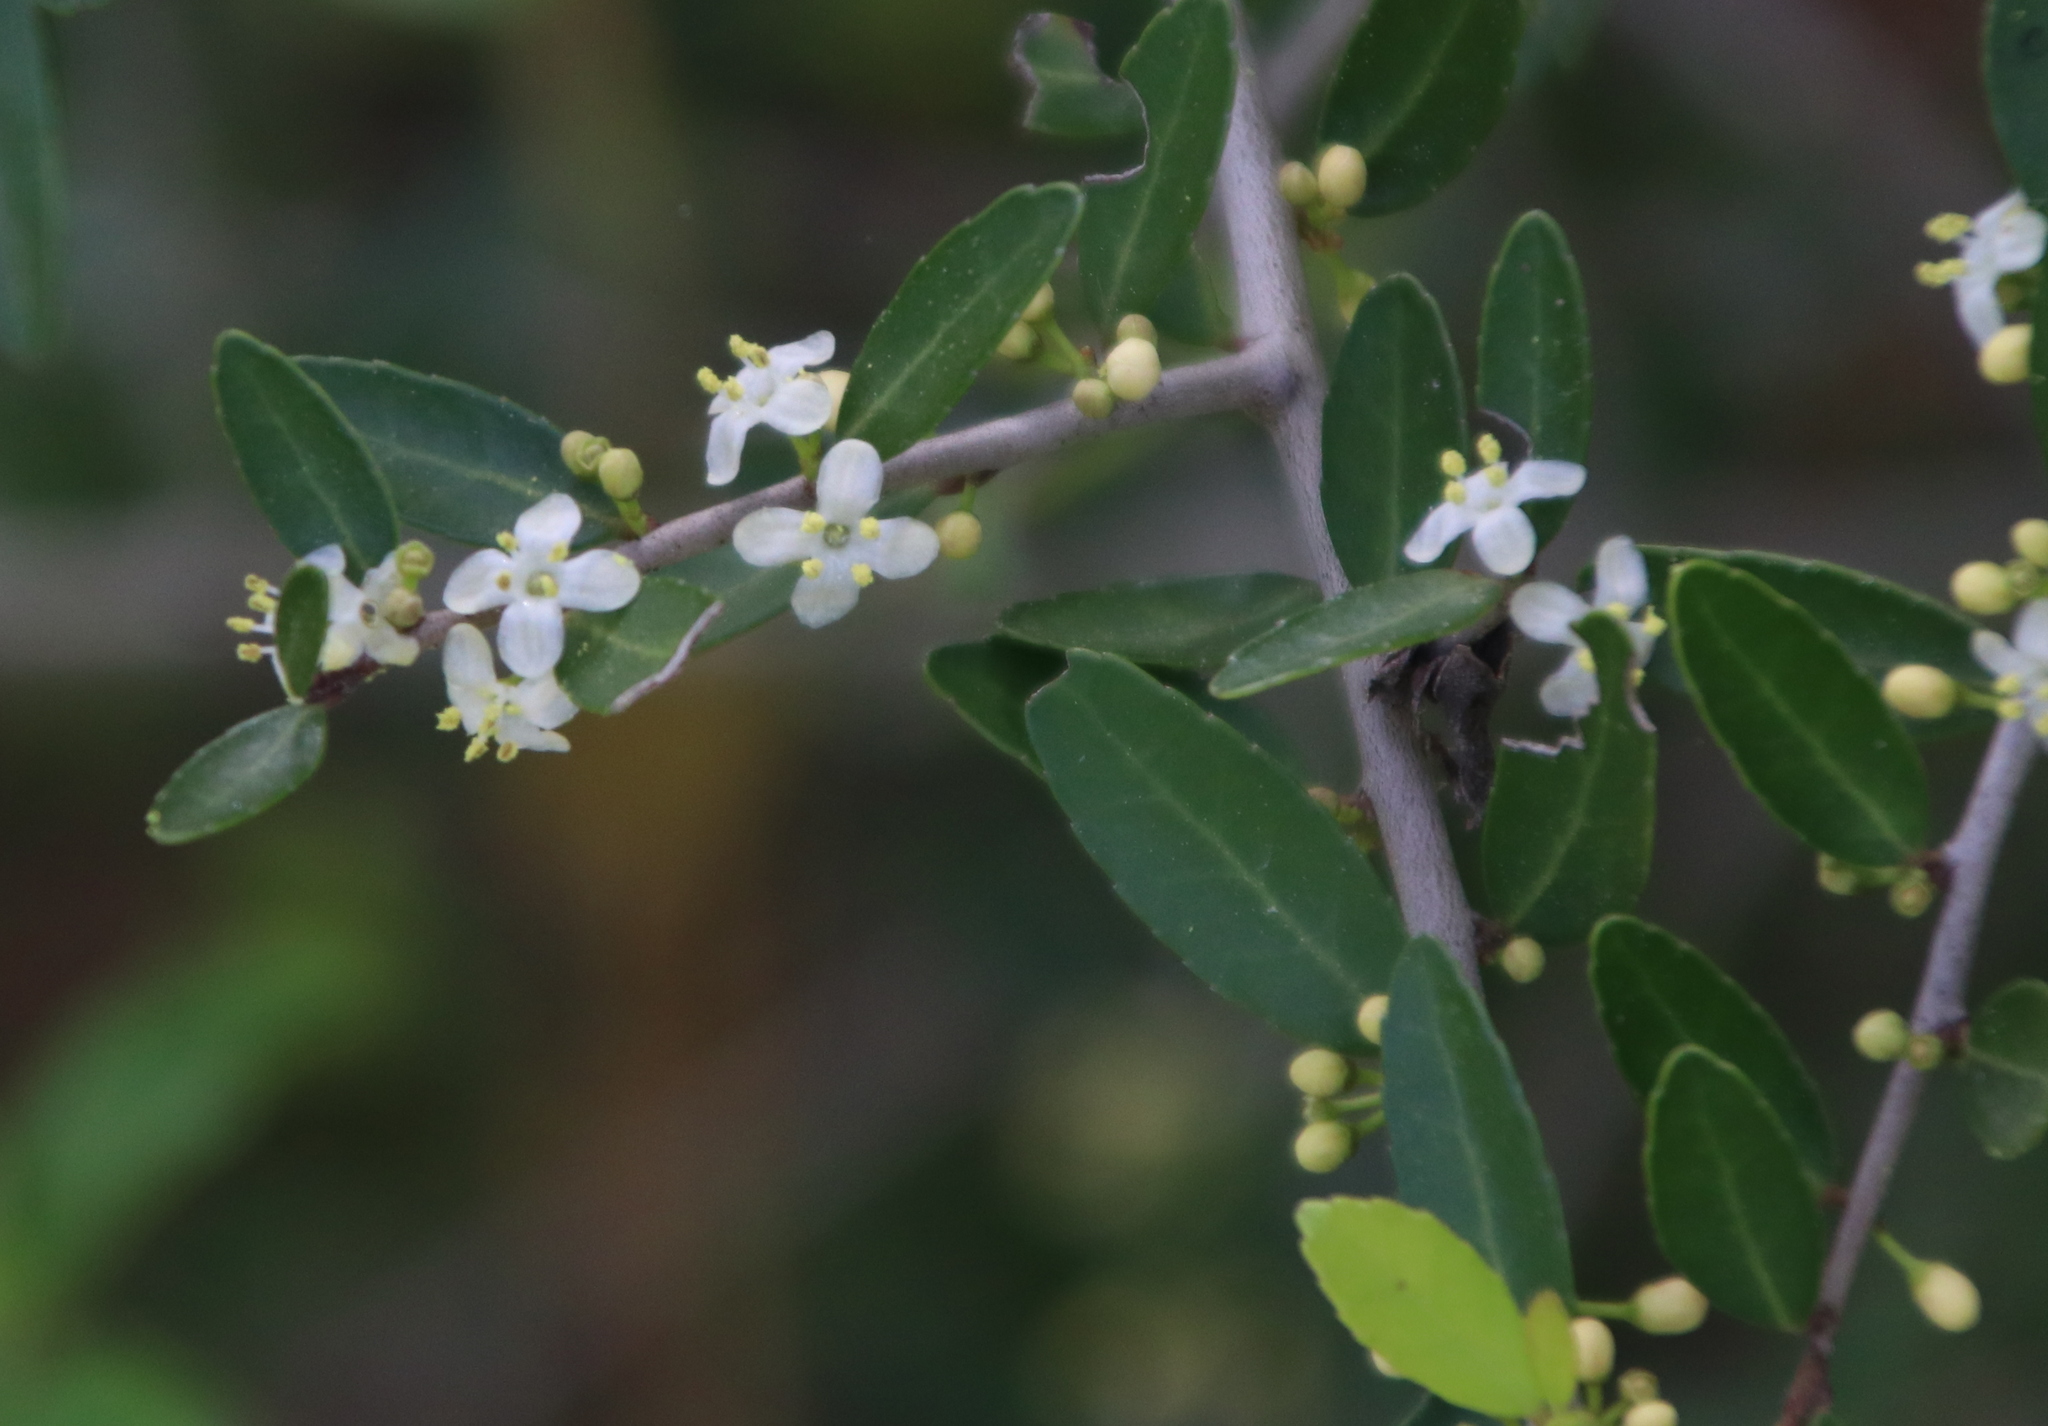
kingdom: Plantae
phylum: Tracheophyta
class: Magnoliopsida
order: Aquifoliales
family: Aquifoliaceae
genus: Ilex
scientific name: Ilex vomitoria
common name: Yaupon holly
